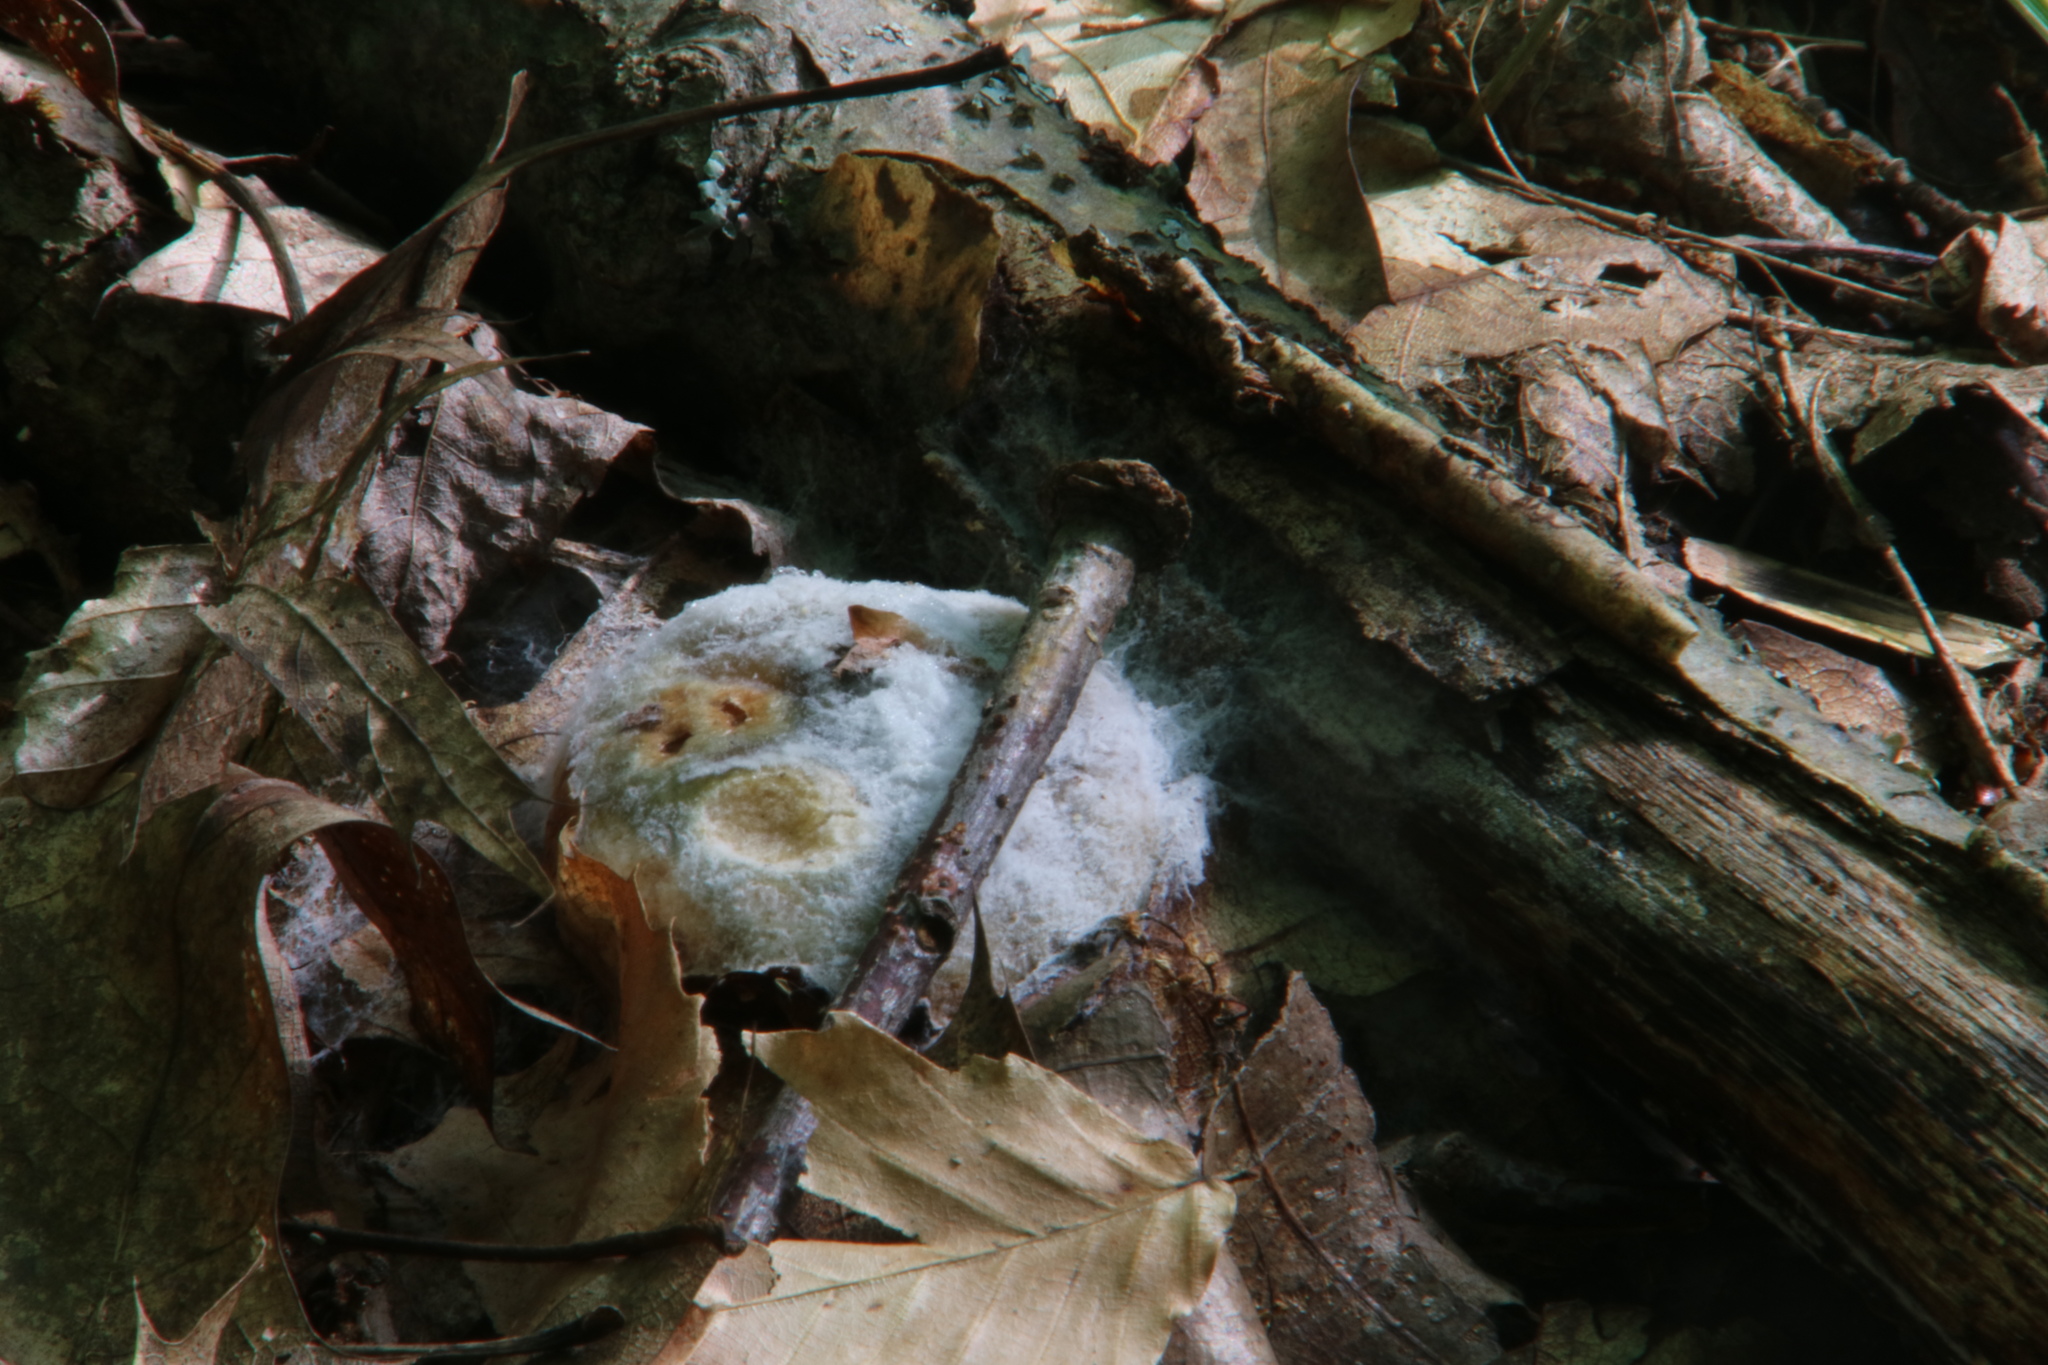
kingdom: Fungi
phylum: Mucoromycota
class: Mucoromycetes
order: Mucorales
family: Rhizopodaceae
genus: Syzygites
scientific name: Syzygites megalocarpus
